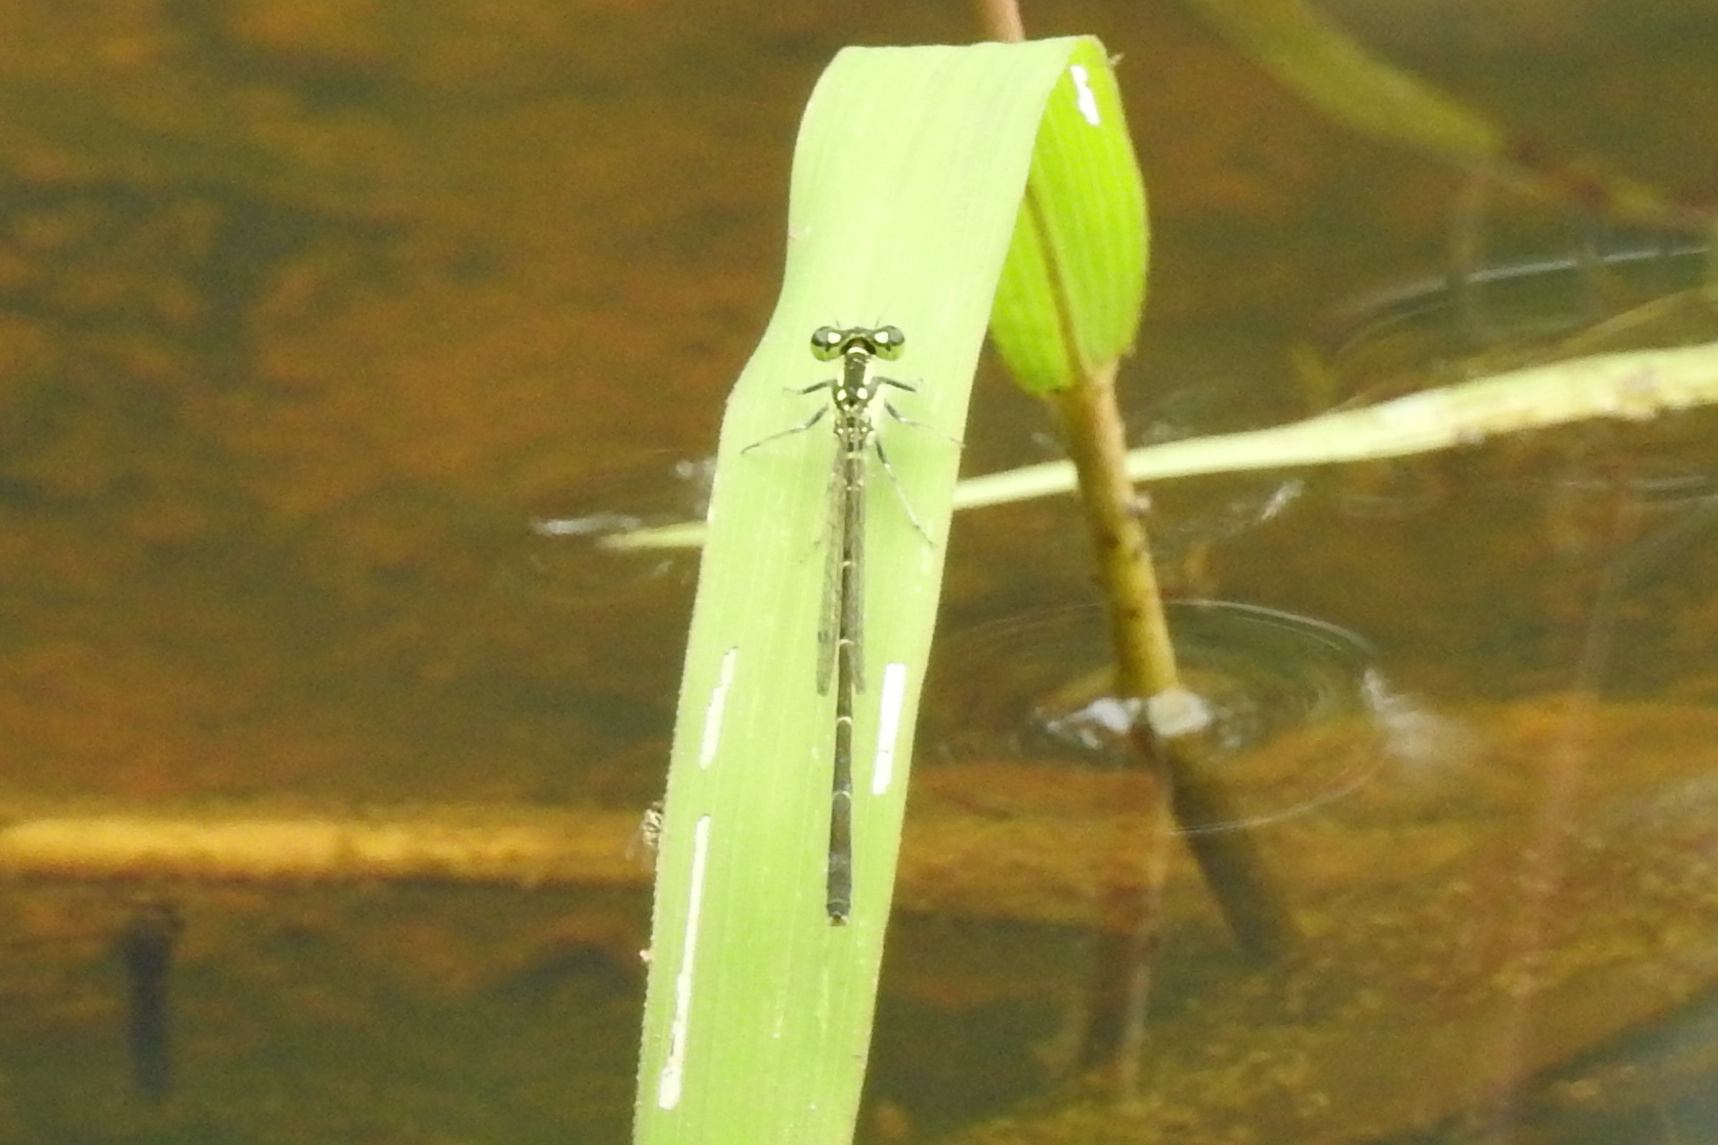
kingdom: Animalia
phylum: Arthropoda
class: Insecta
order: Odonata
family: Coenagrionidae
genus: Ischnura
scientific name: Ischnura posita
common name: Fragile forktail
